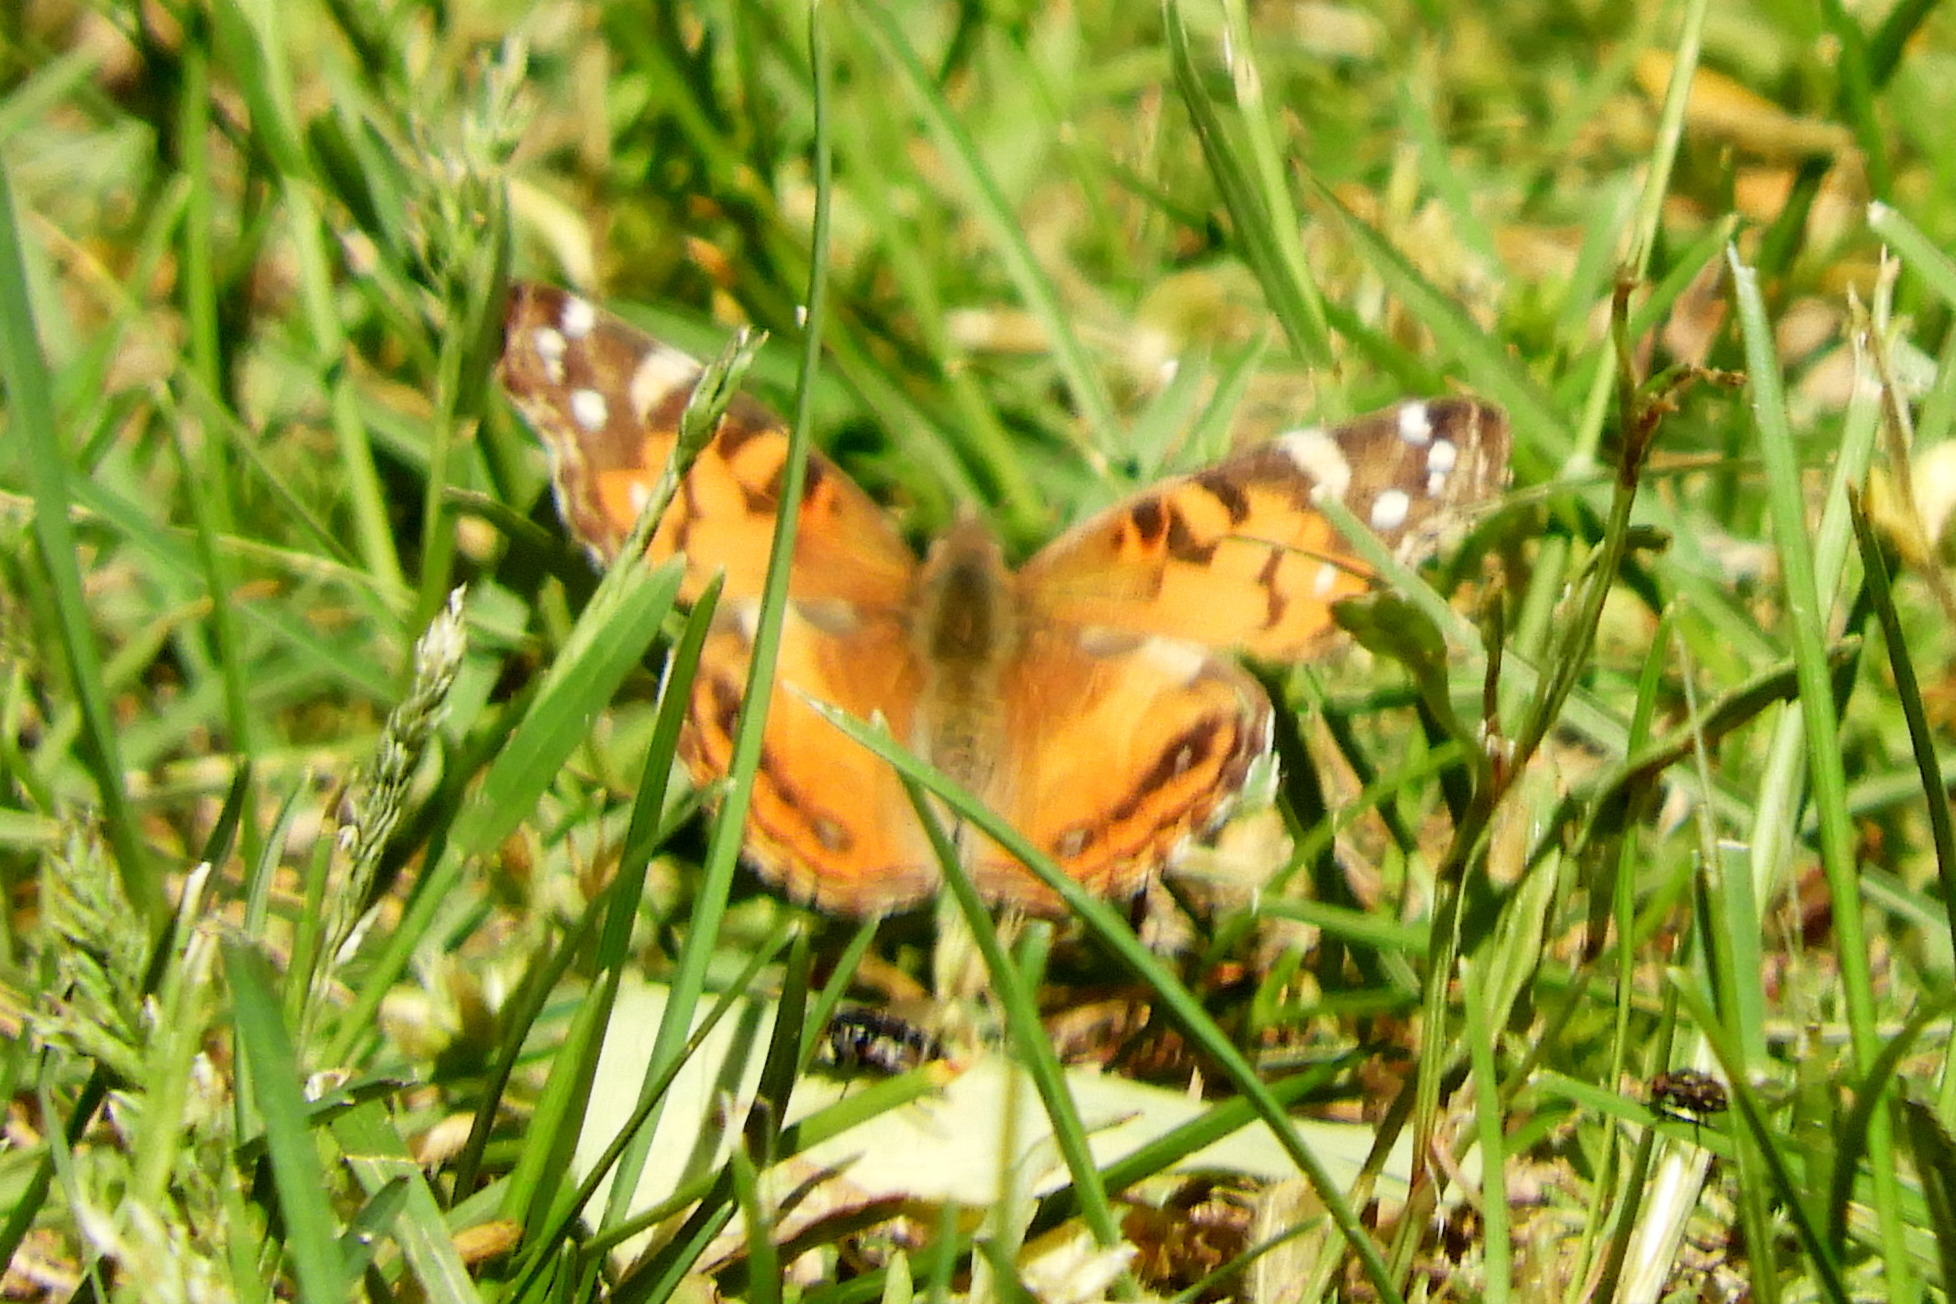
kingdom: Animalia
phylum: Arthropoda
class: Insecta
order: Lepidoptera
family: Nymphalidae
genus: Vanessa
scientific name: Vanessa virginiensis
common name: American lady
